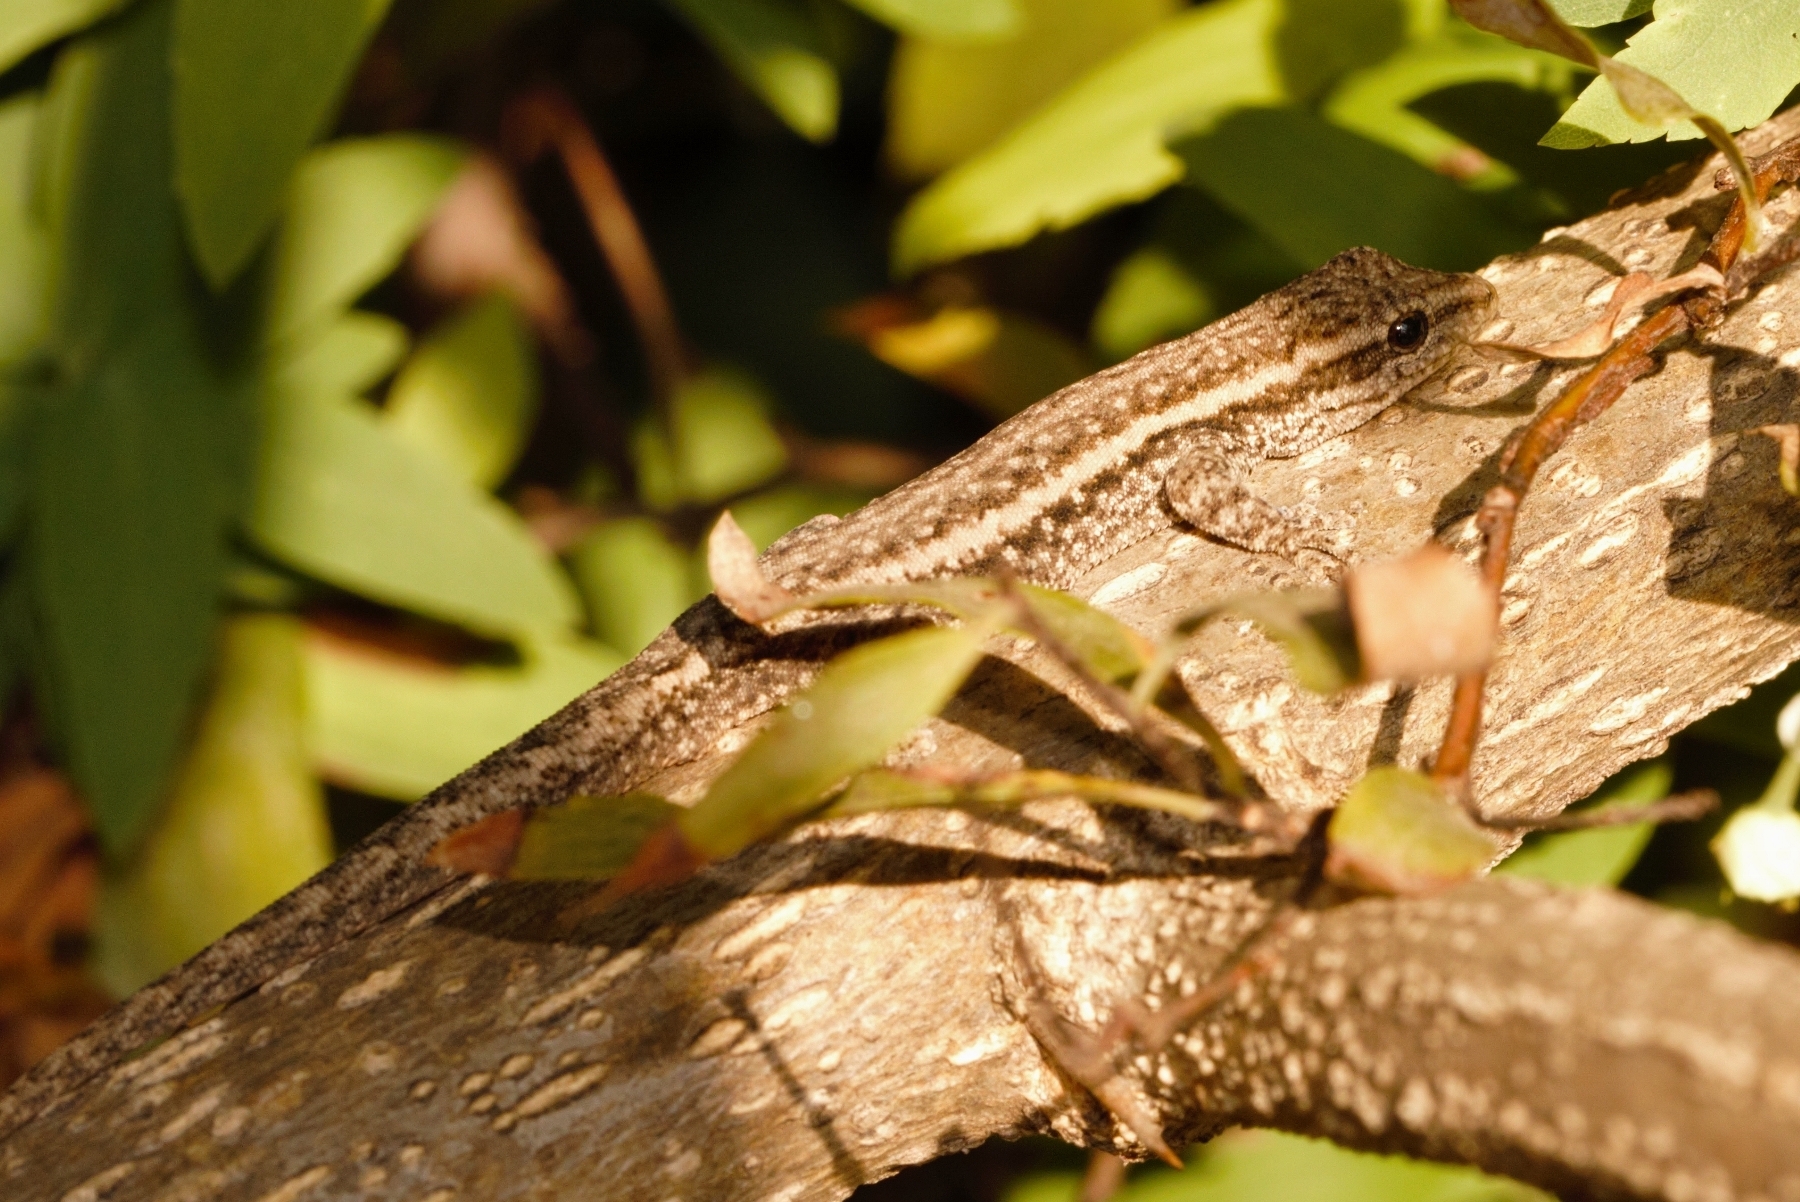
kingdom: Animalia
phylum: Chordata
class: Squamata
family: Gekkonidae
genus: Lygodactylus
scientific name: Lygodactylus capensis
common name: Cape dwarf gecko
